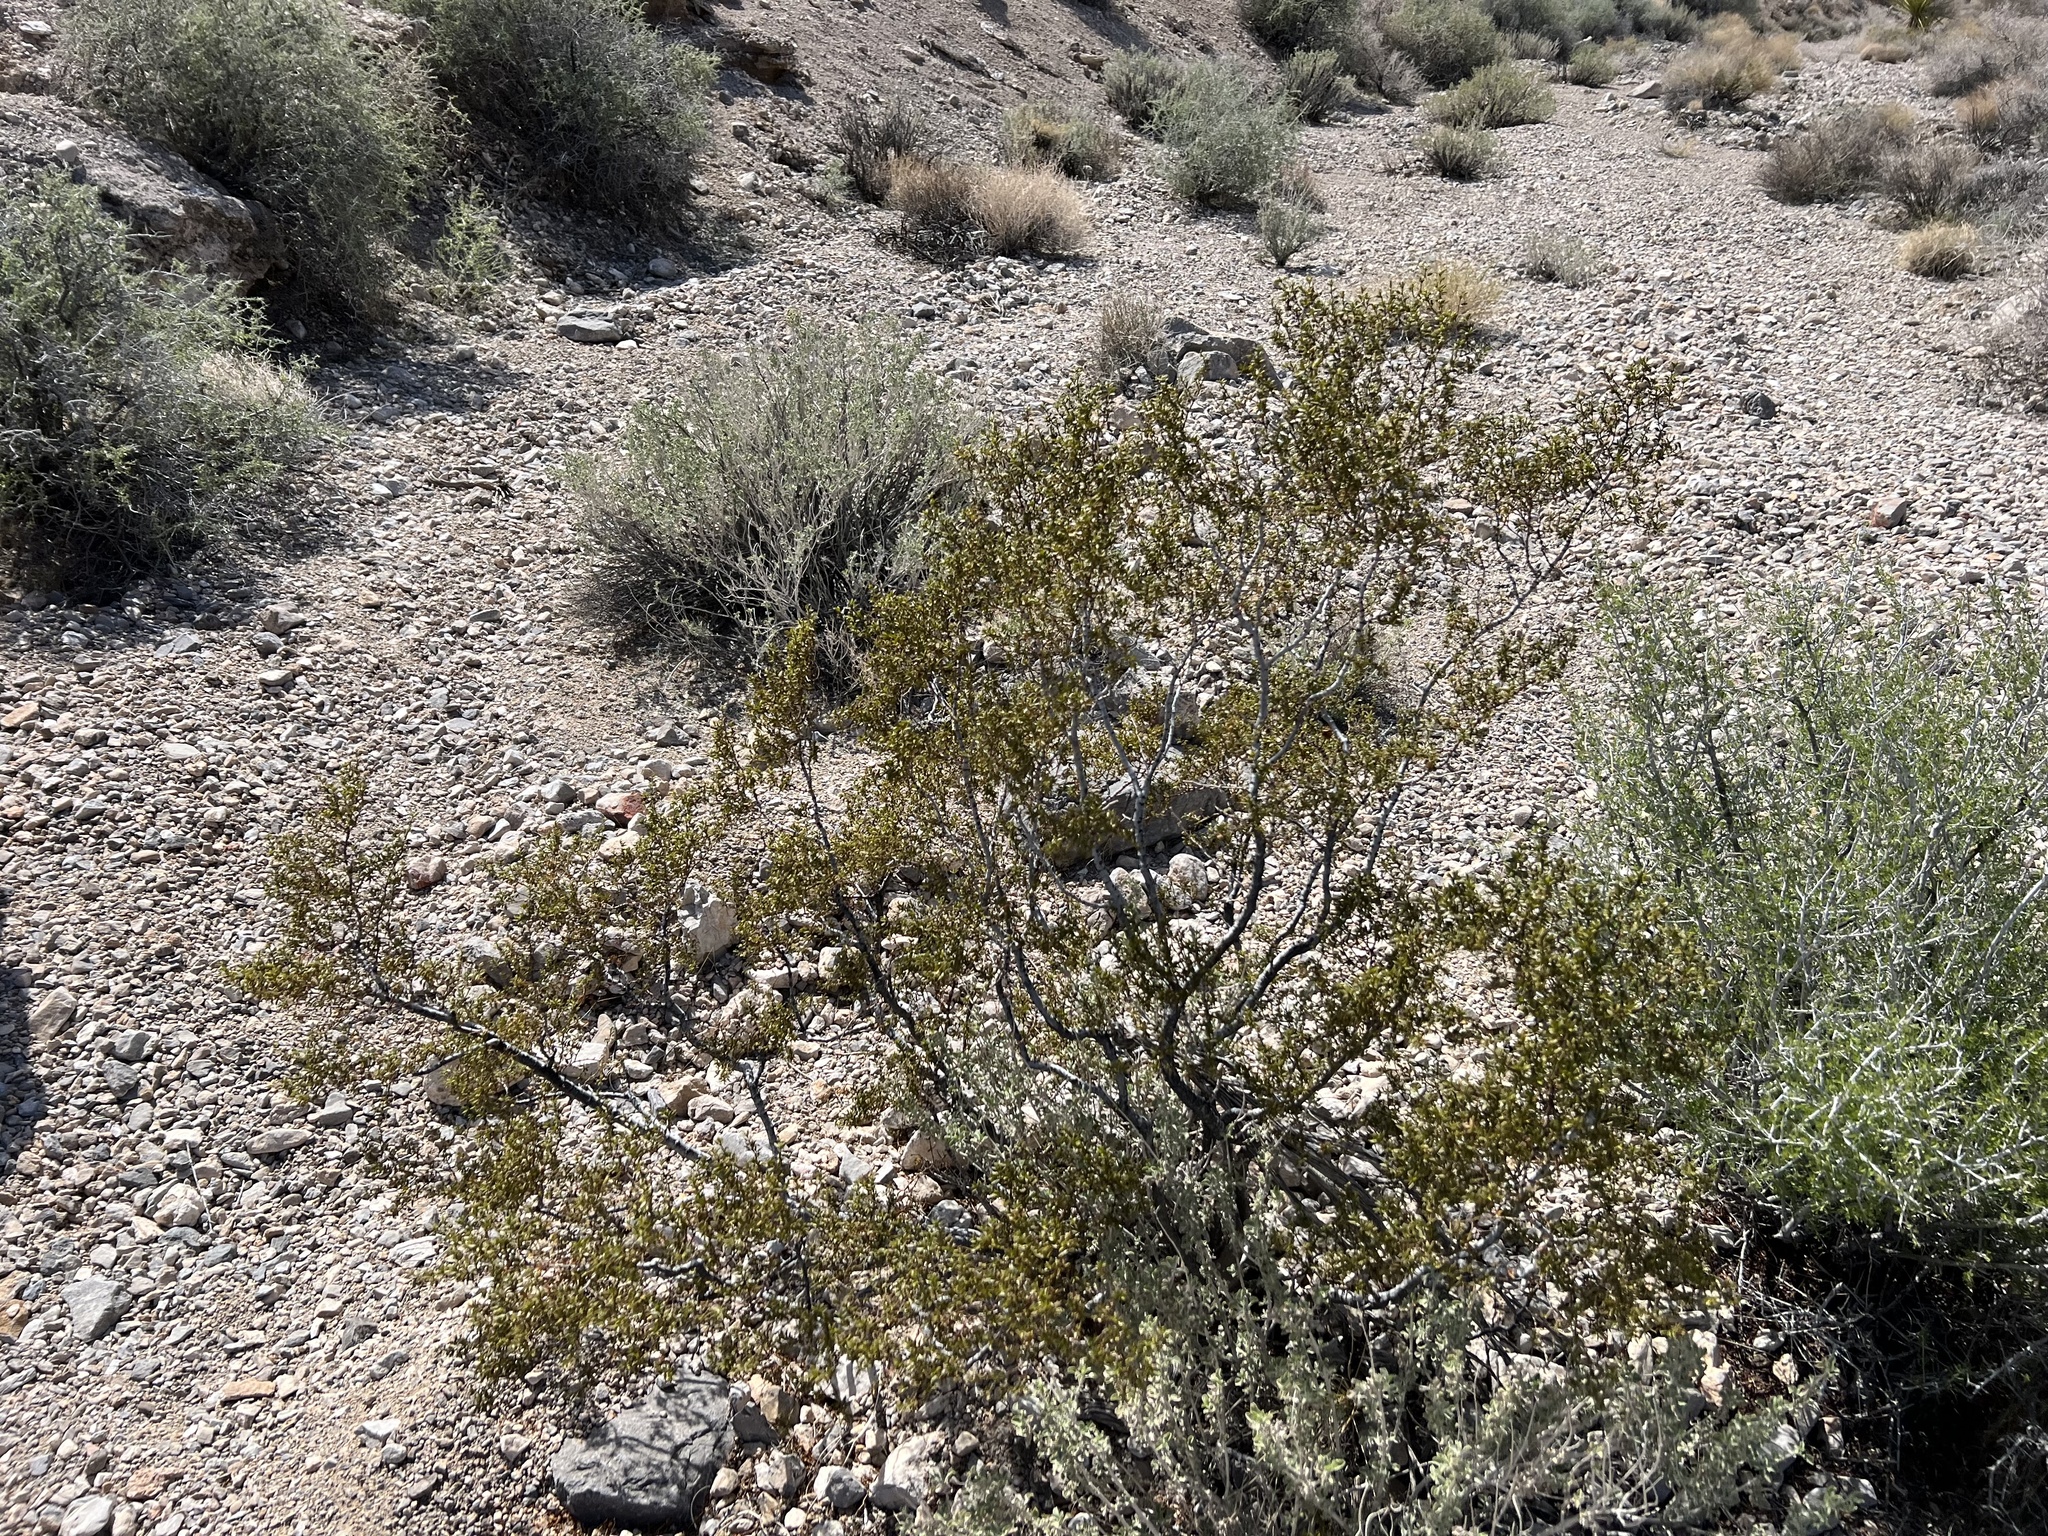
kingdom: Plantae
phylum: Tracheophyta
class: Magnoliopsida
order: Zygophyllales
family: Zygophyllaceae
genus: Larrea
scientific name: Larrea tridentata
